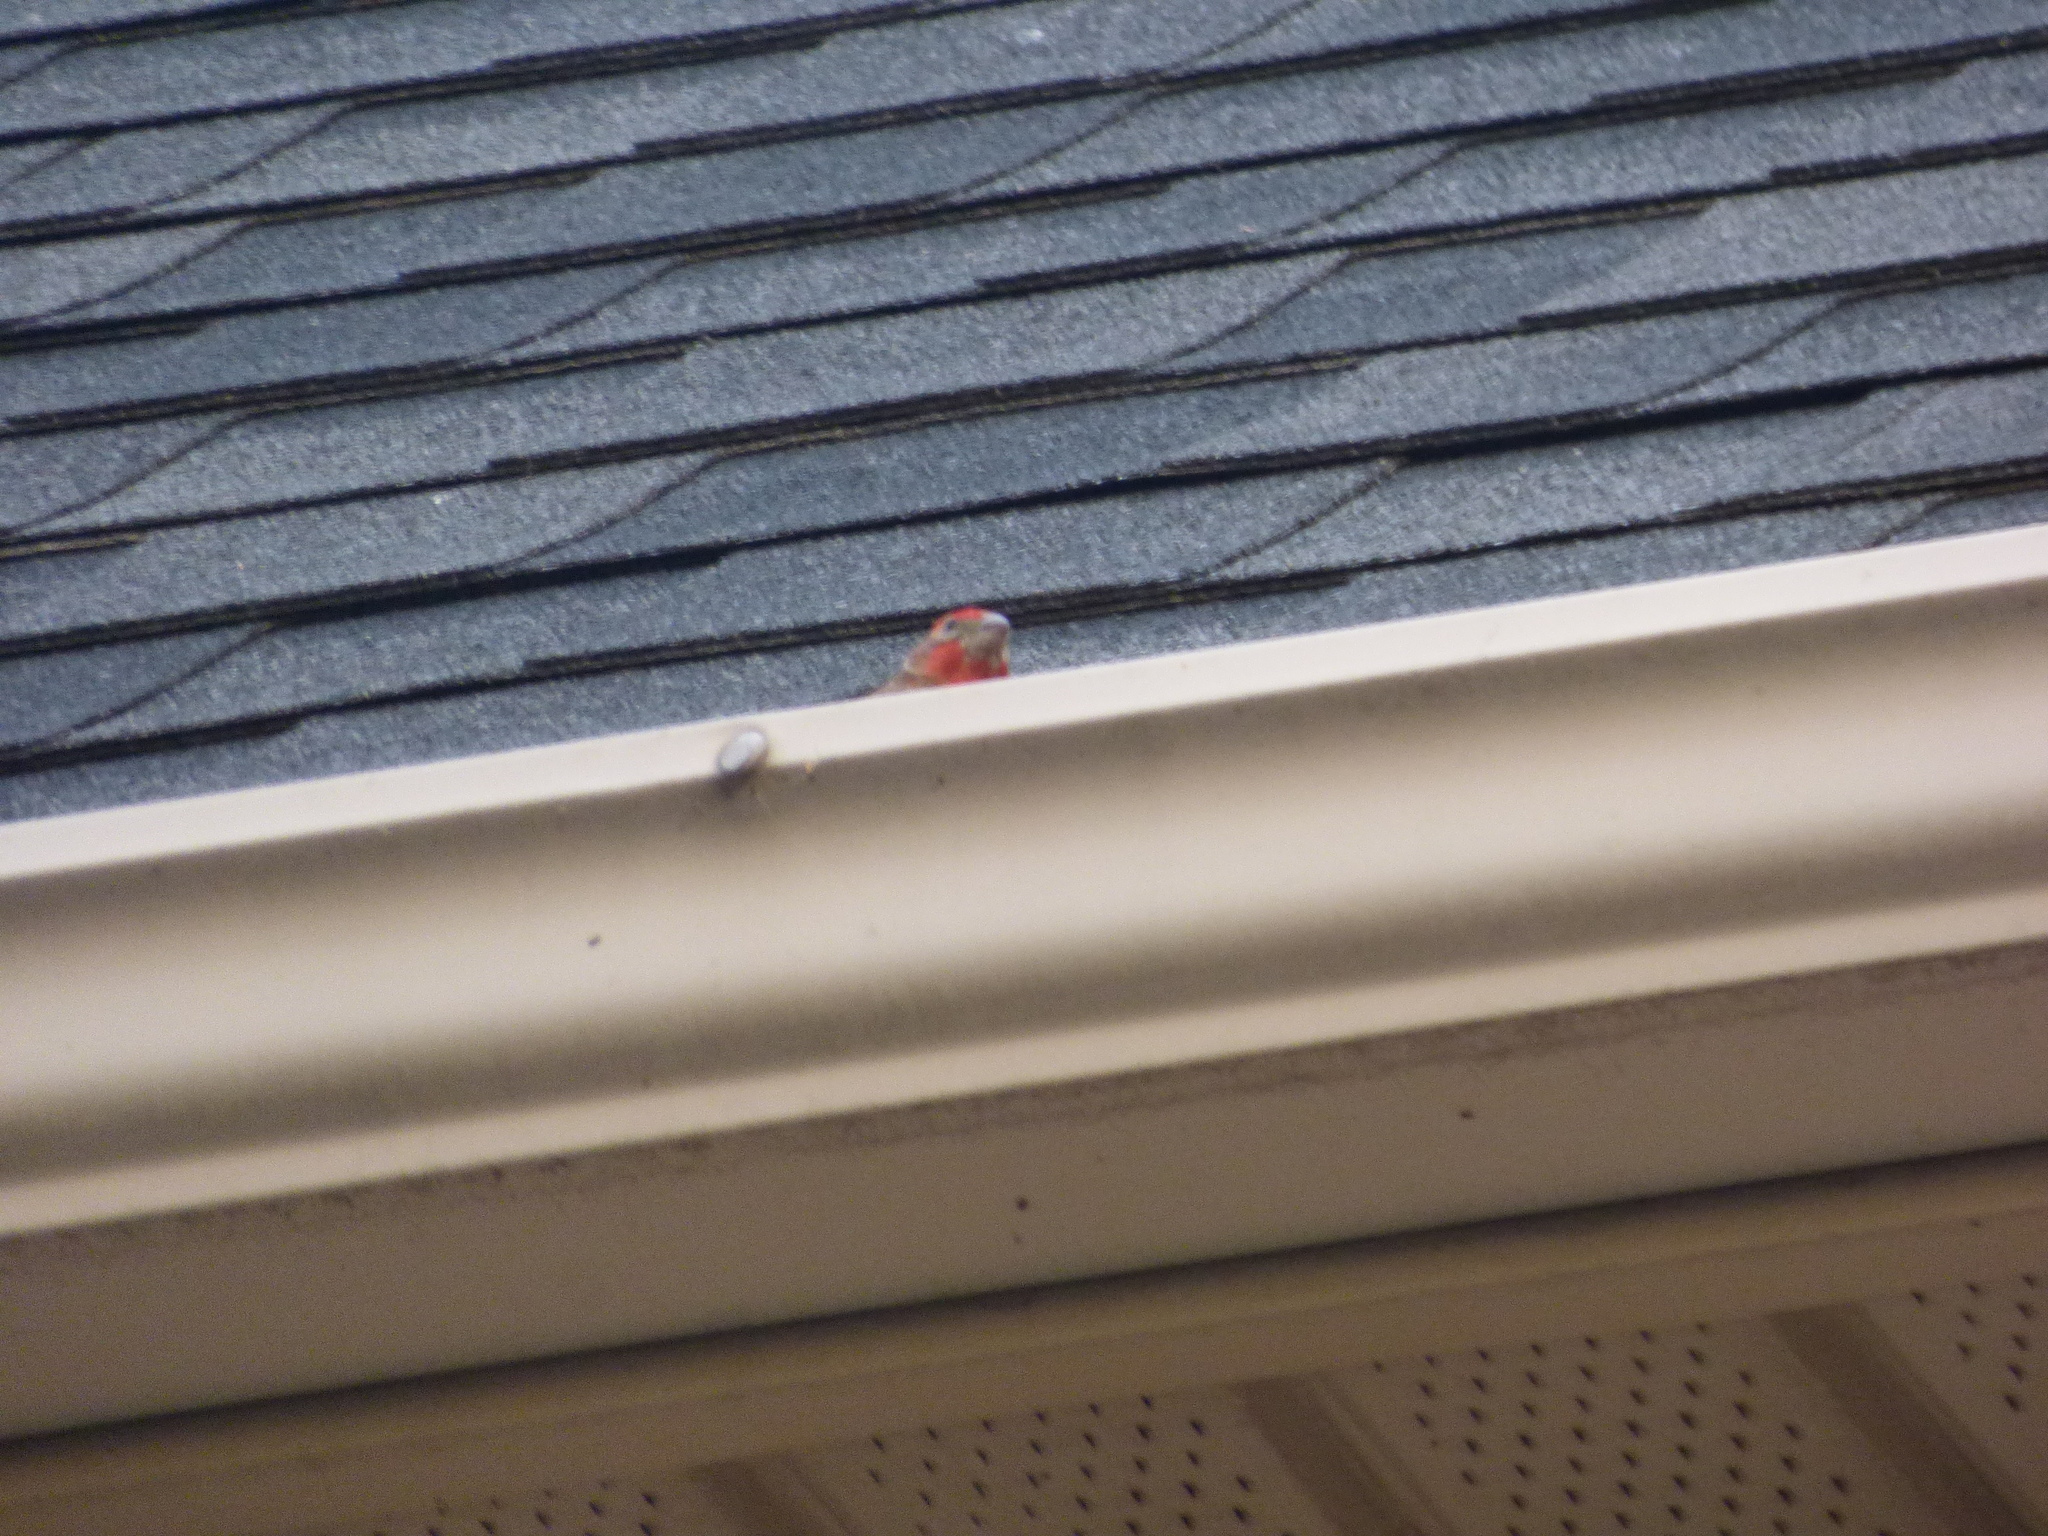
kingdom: Animalia
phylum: Chordata
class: Aves
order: Passeriformes
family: Fringillidae
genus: Haemorhous
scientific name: Haemorhous mexicanus
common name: House finch
